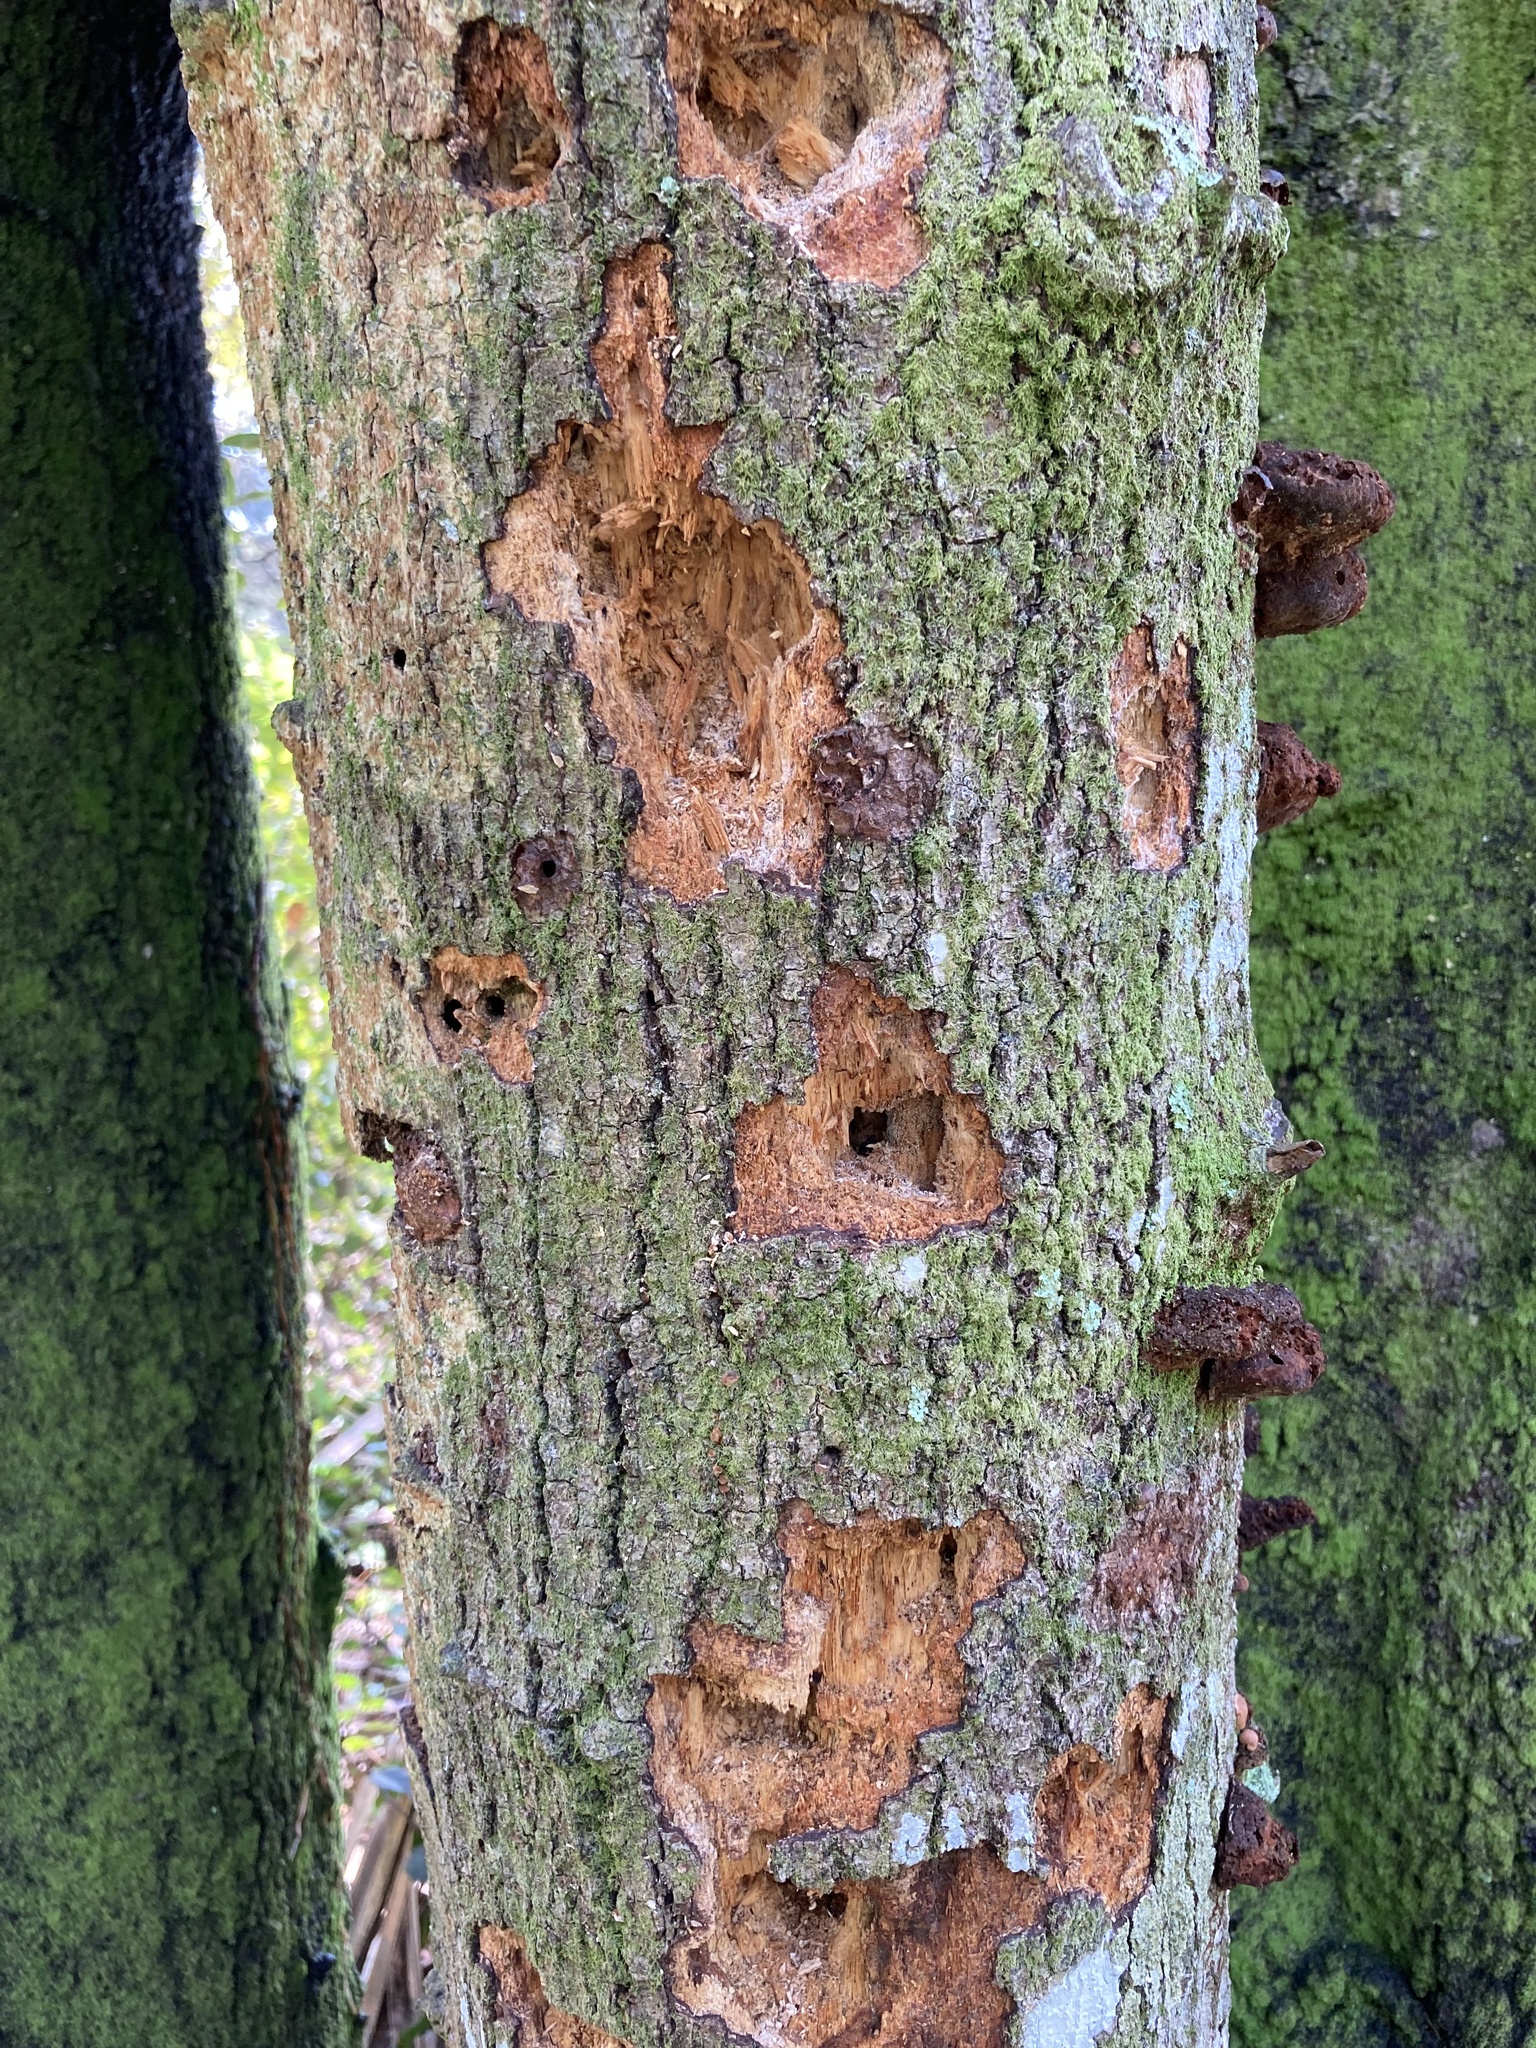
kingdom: Animalia
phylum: Chordata
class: Aves
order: Piciformes
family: Picidae
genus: Dryocopus
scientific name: Dryocopus pileatus
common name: Pileated woodpecker
